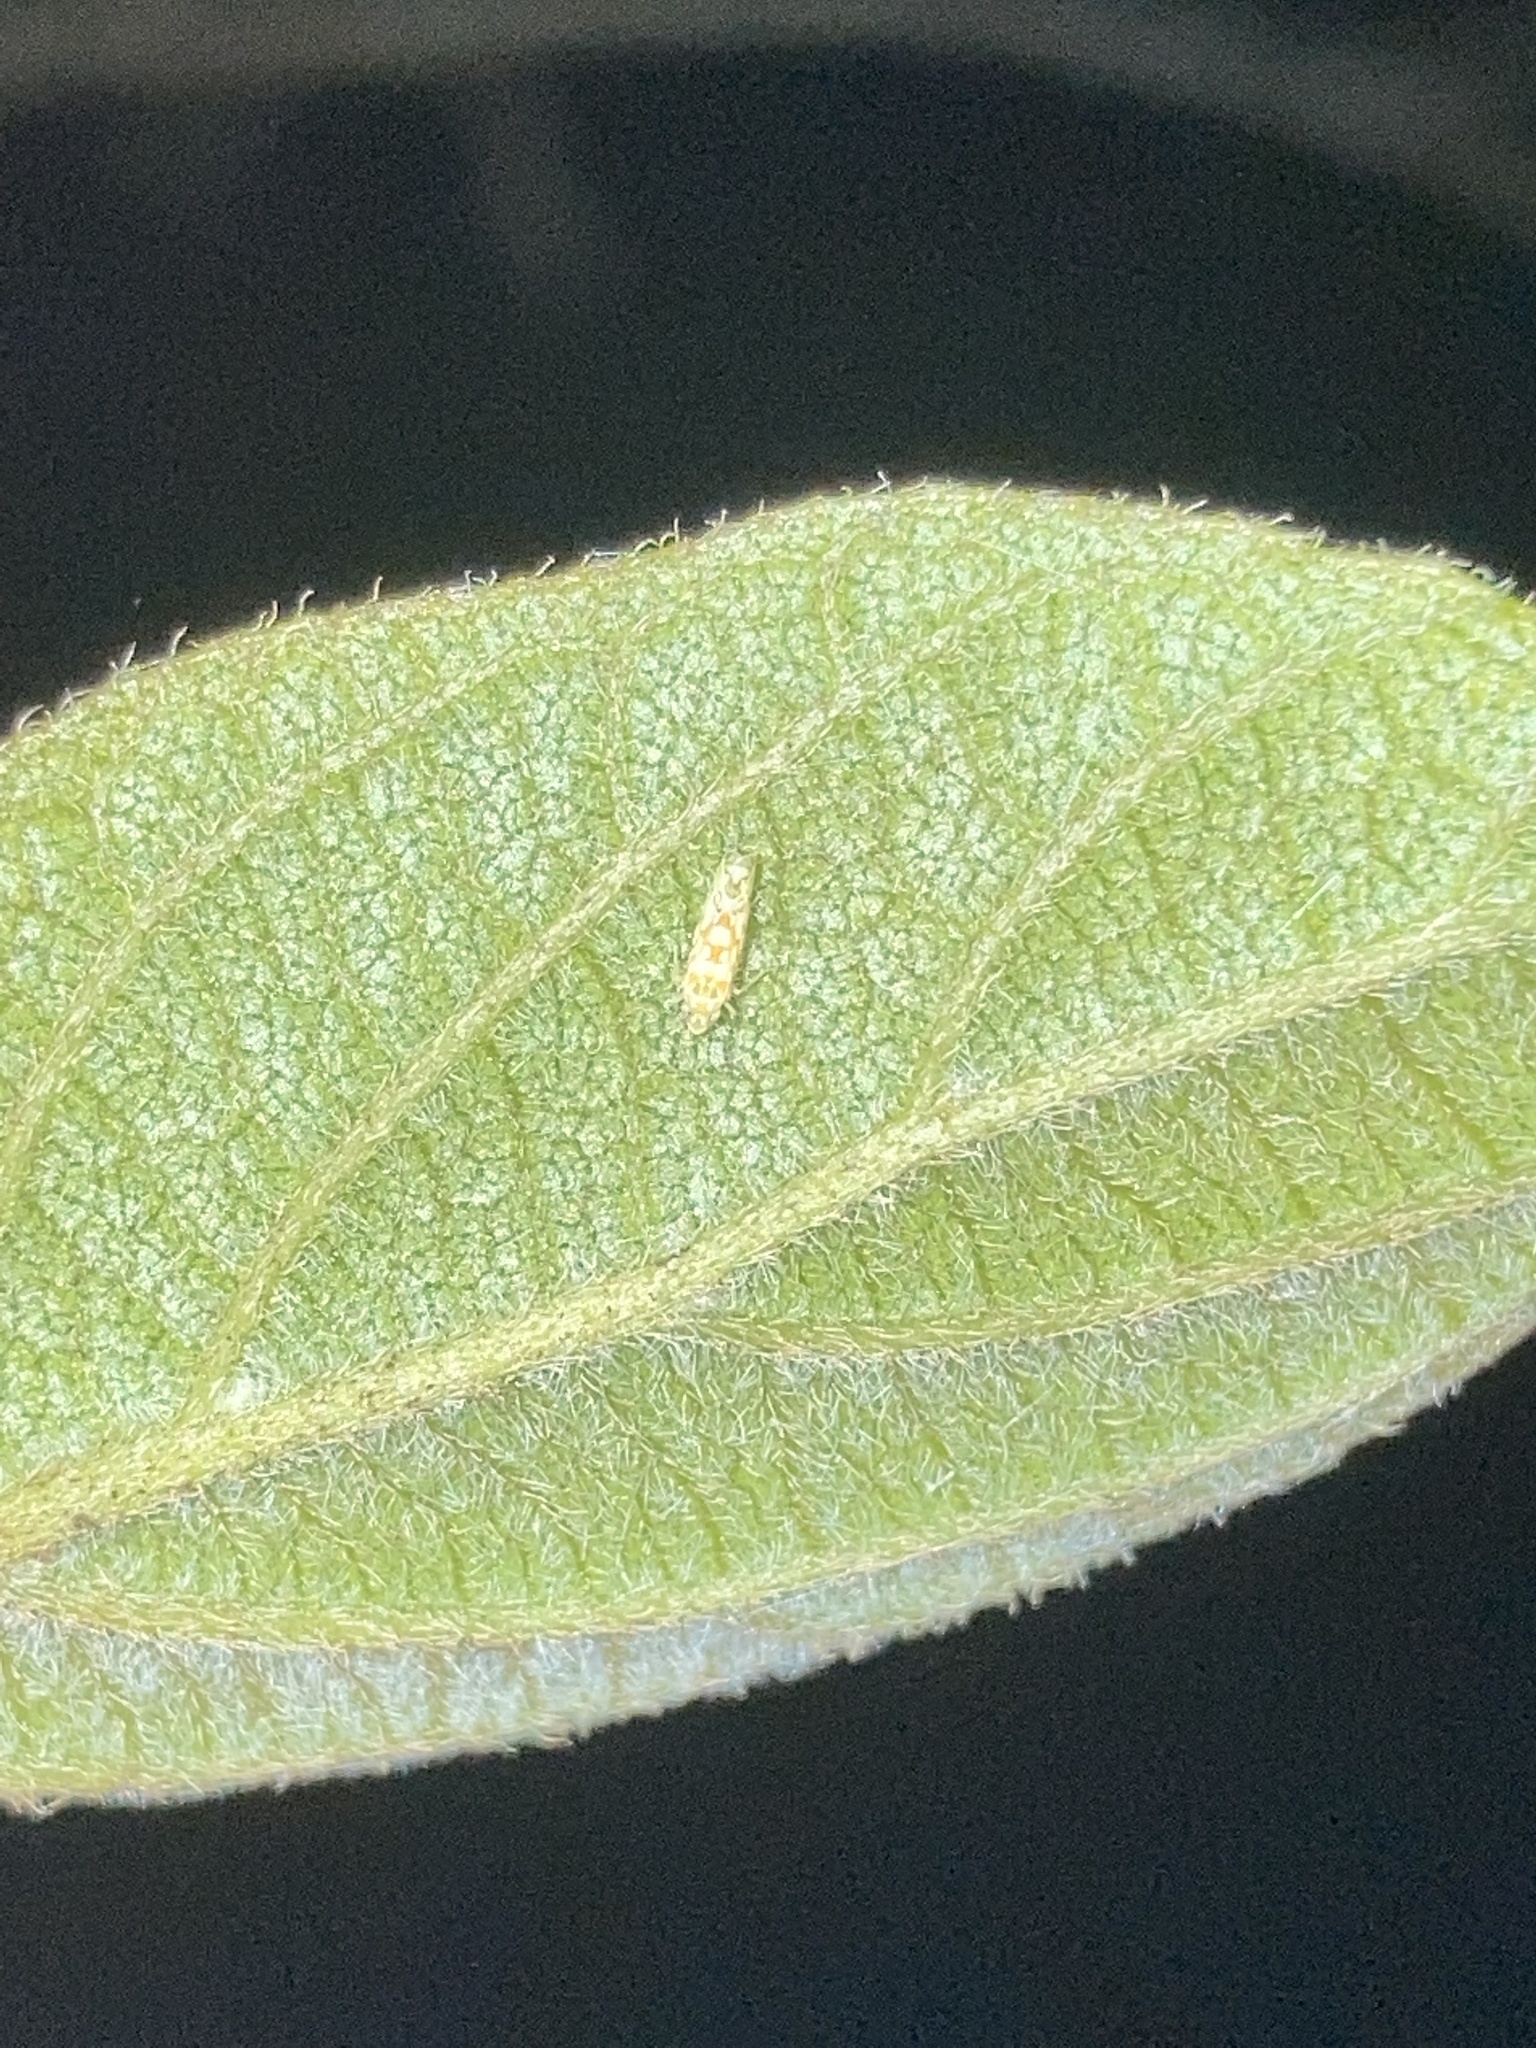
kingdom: Animalia
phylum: Arthropoda
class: Insecta
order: Hemiptera
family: Cicadellidae
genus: Protalebra
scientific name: Protalebra nexa
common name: Leafhopper
